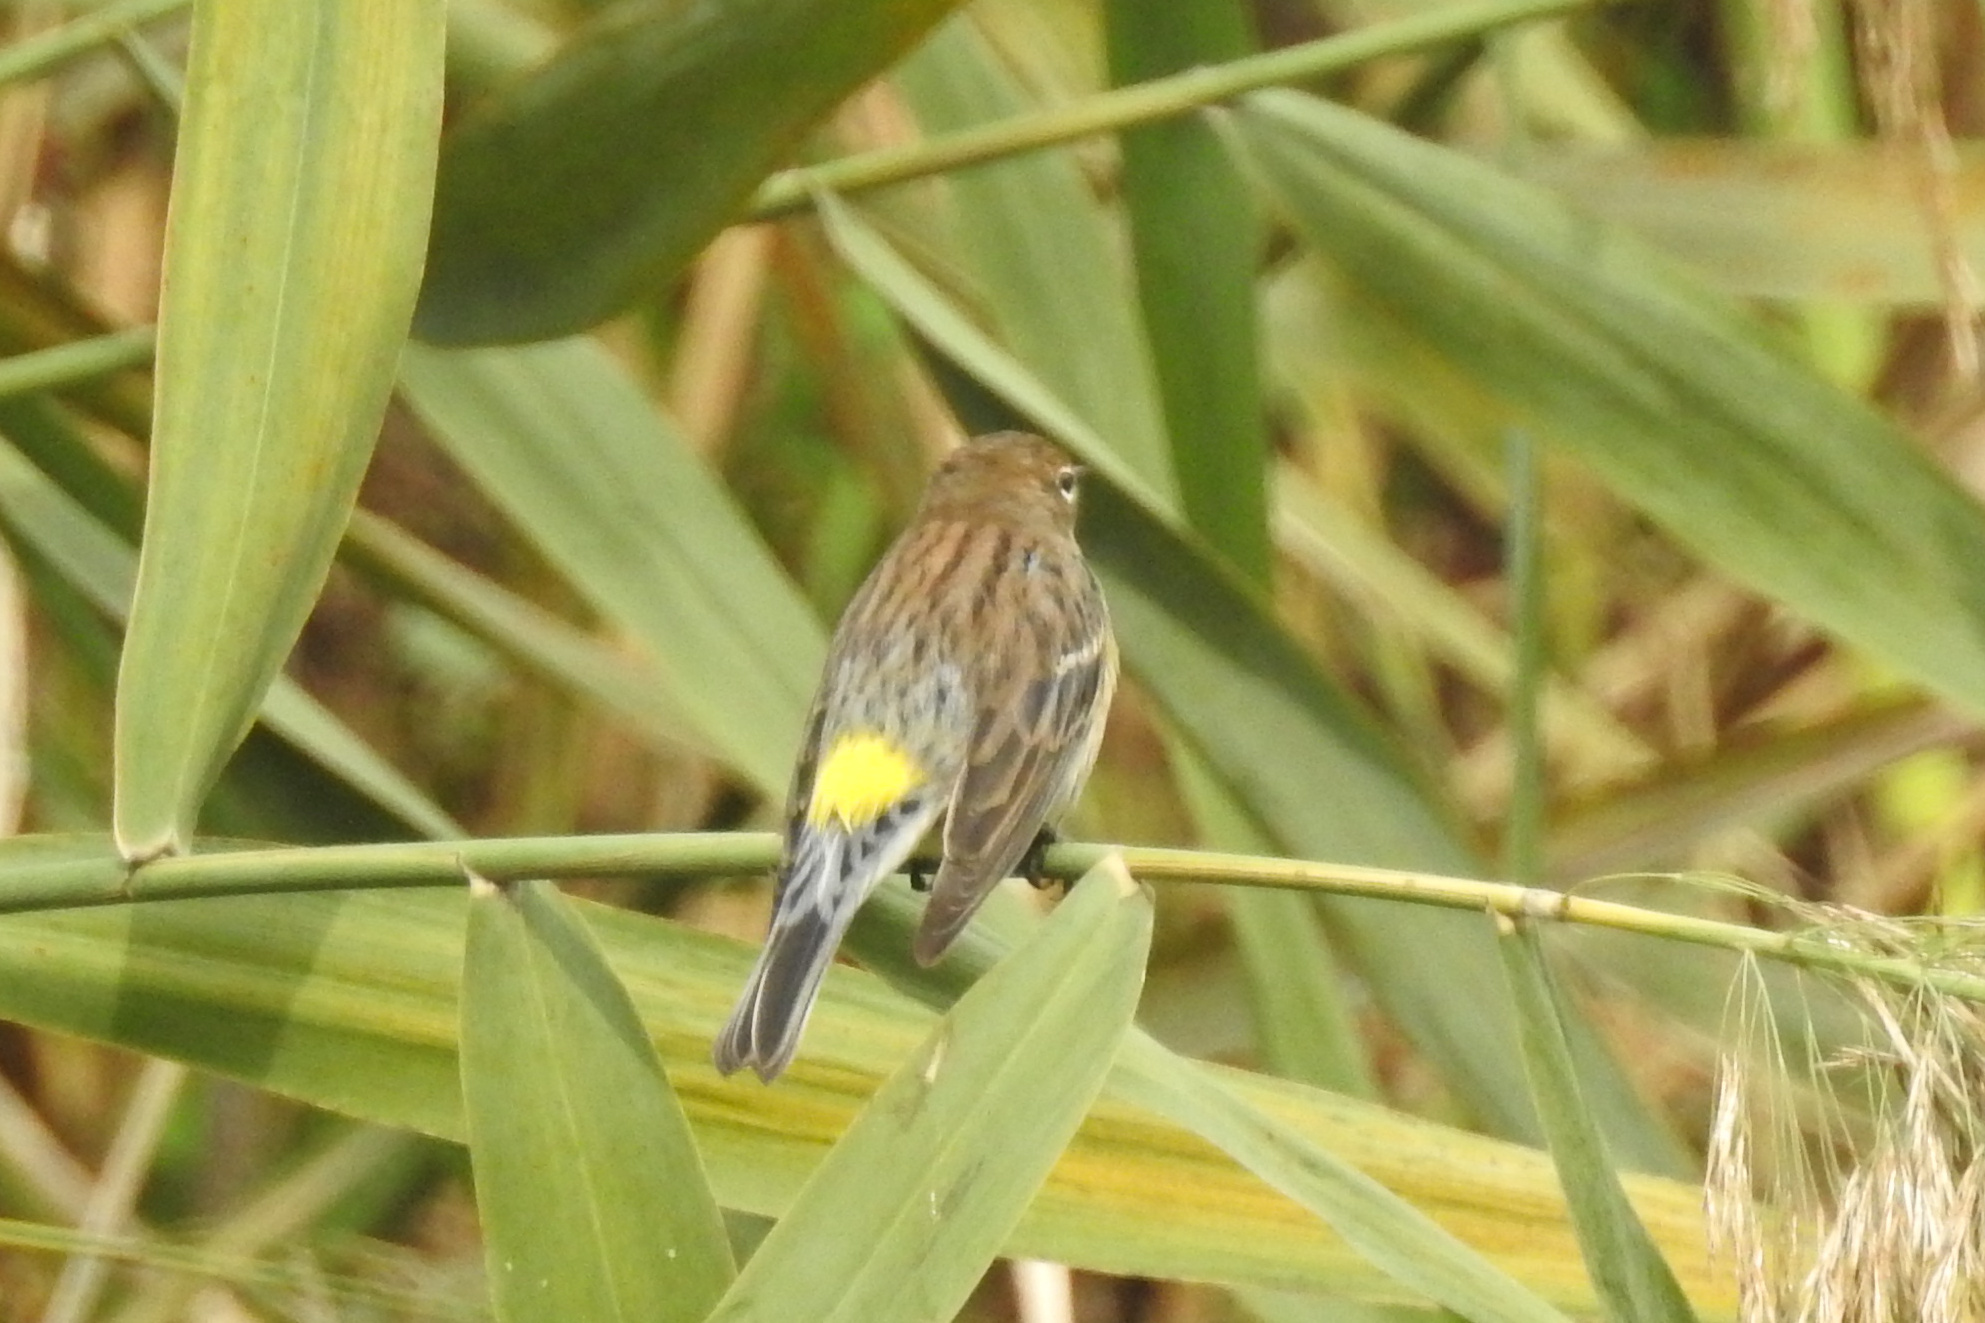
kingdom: Animalia
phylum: Chordata
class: Aves
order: Passeriformes
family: Parulidae
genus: Setophaga
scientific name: Setophaga coronata
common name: Myrtle warbler
